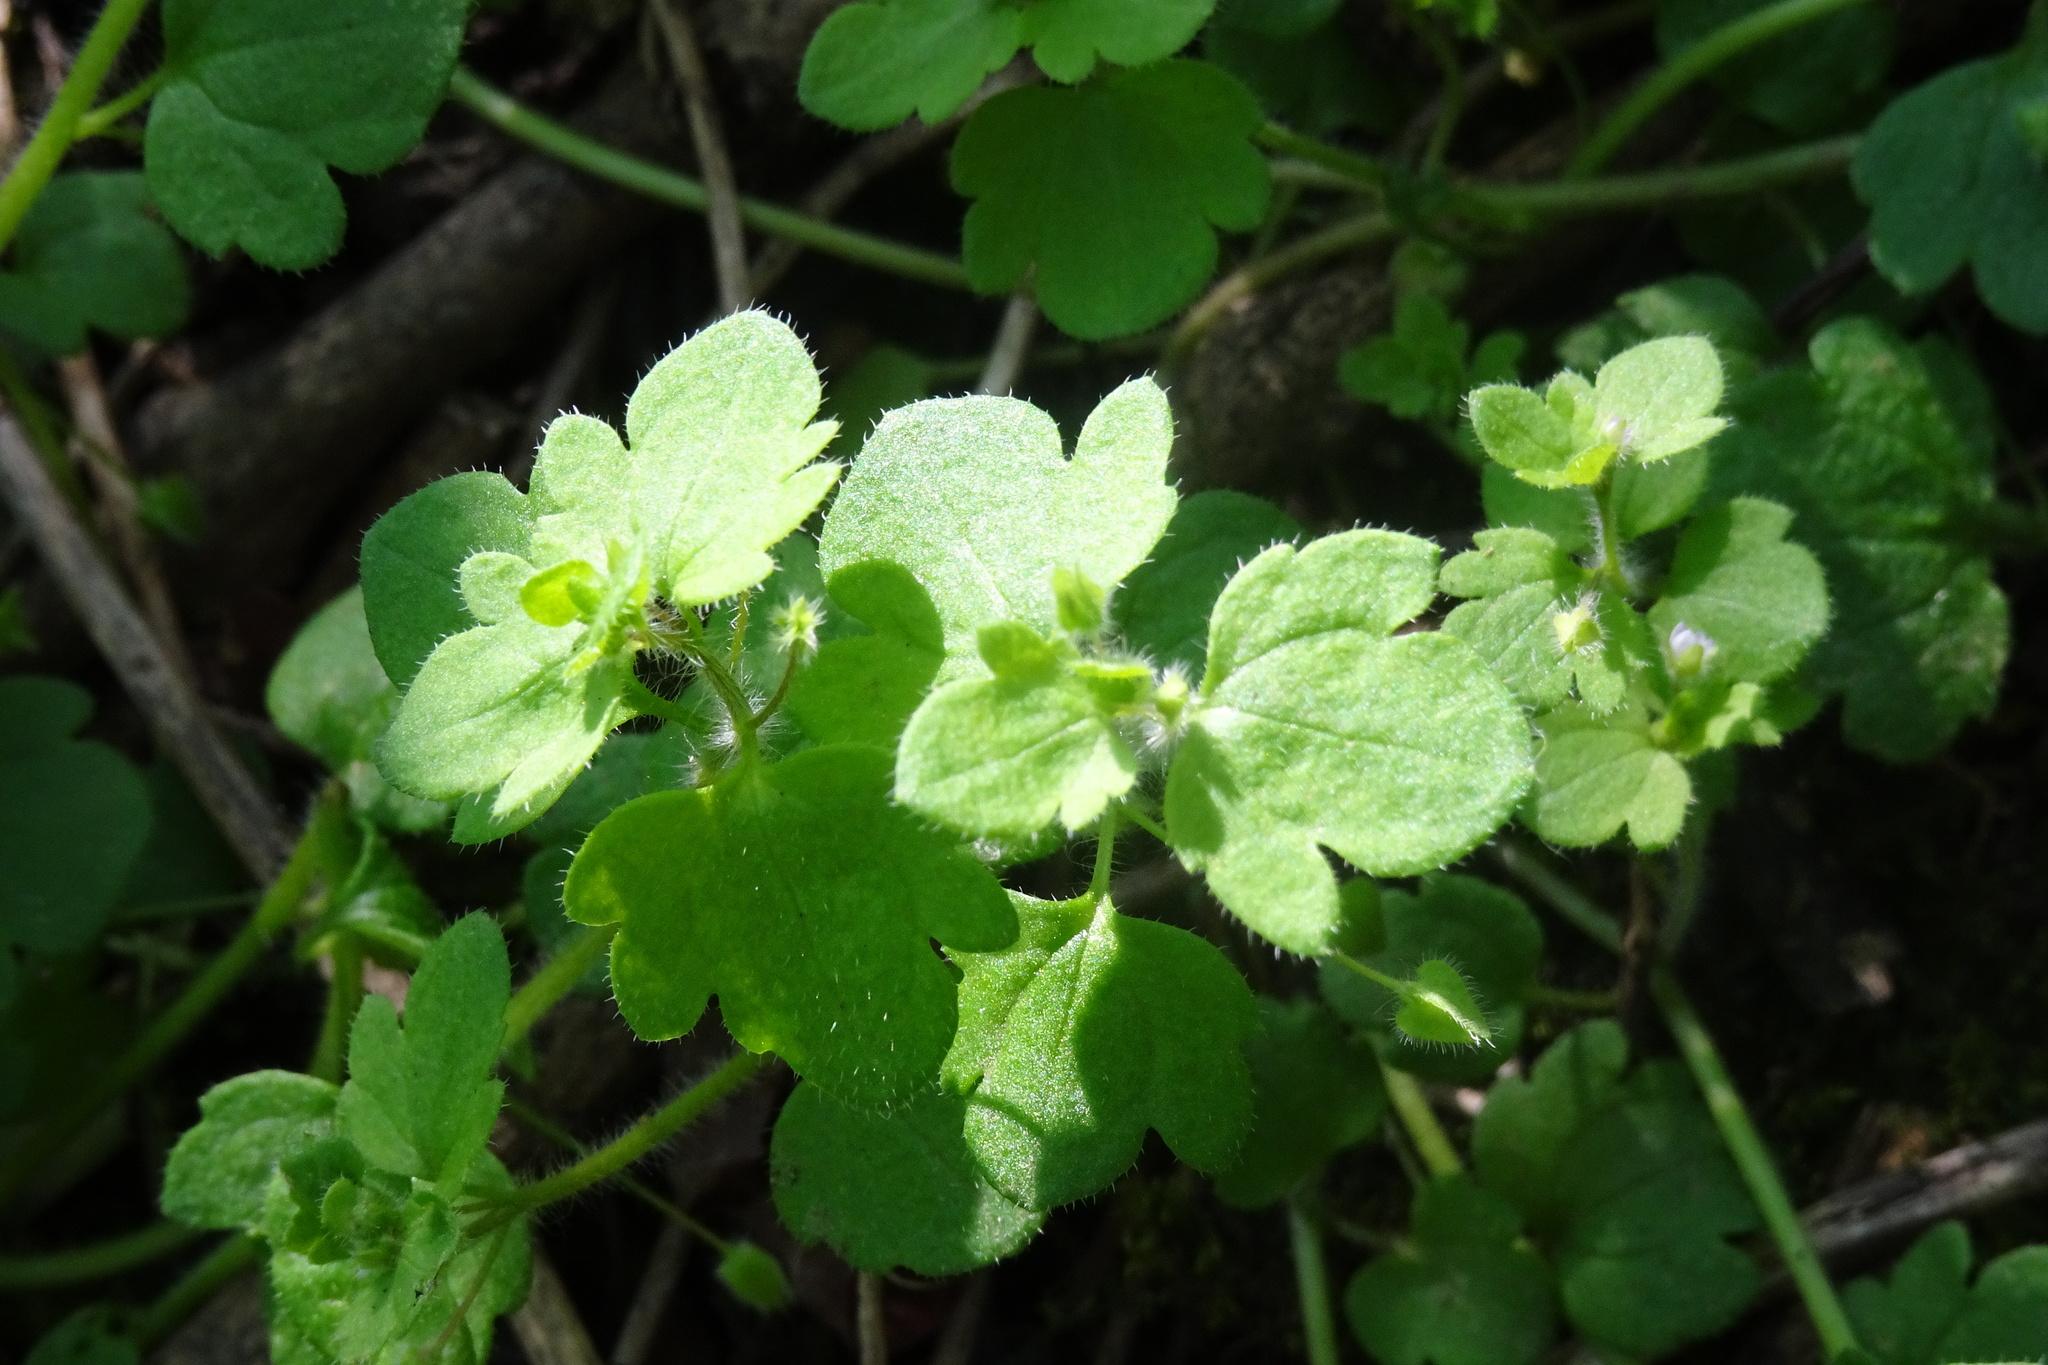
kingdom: Plantae
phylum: Tracheophyta
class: Magnoliopsida
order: Lamiales
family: Plantaginaceae
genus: Veronica
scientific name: Veronica hederifolia
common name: Ivy-leaved speedwell
